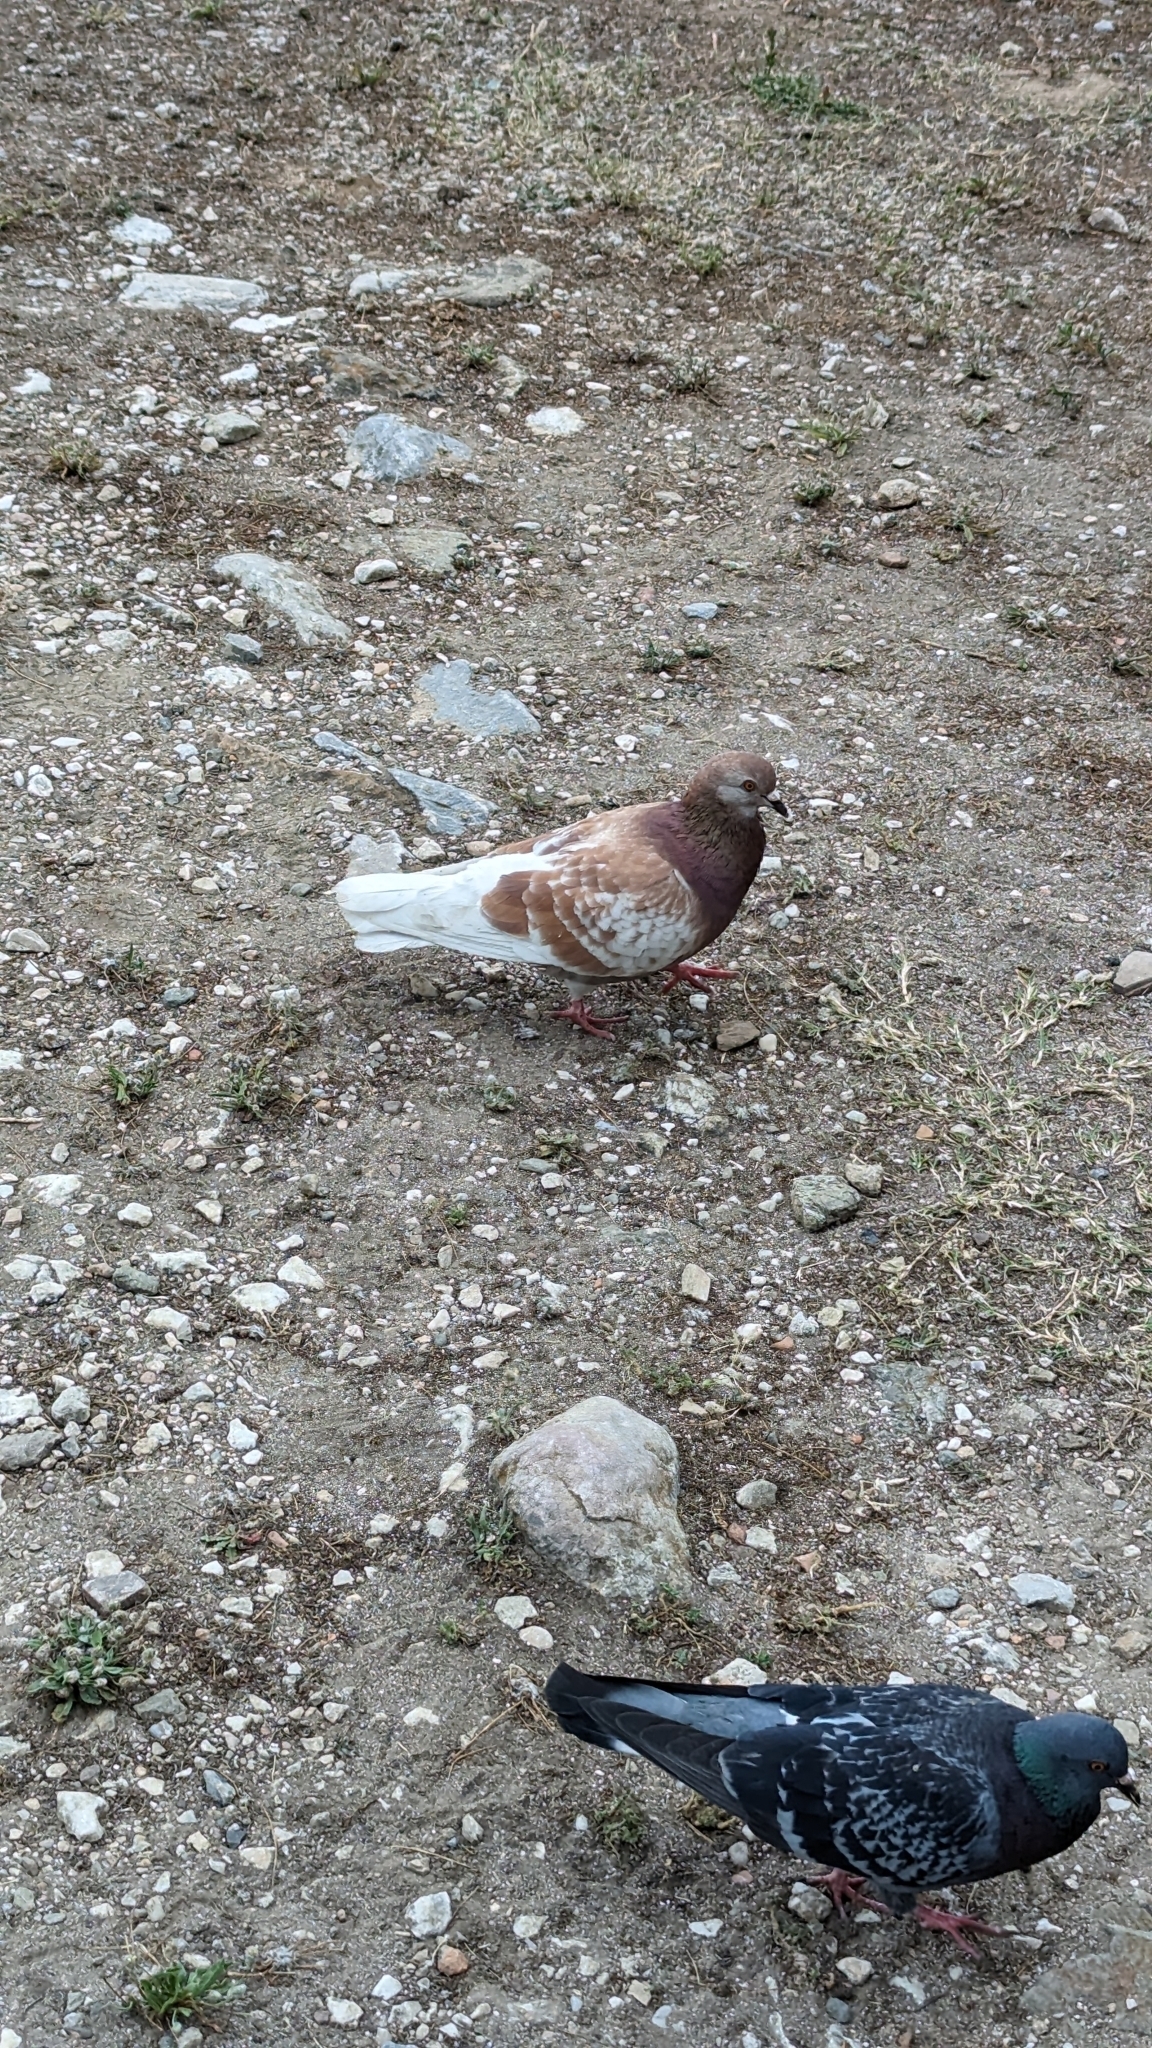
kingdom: Animalia
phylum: Chordata
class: Aves
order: Columbiformes
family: Columbidae
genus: Columba
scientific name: Columba livia
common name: Rock pigeon
